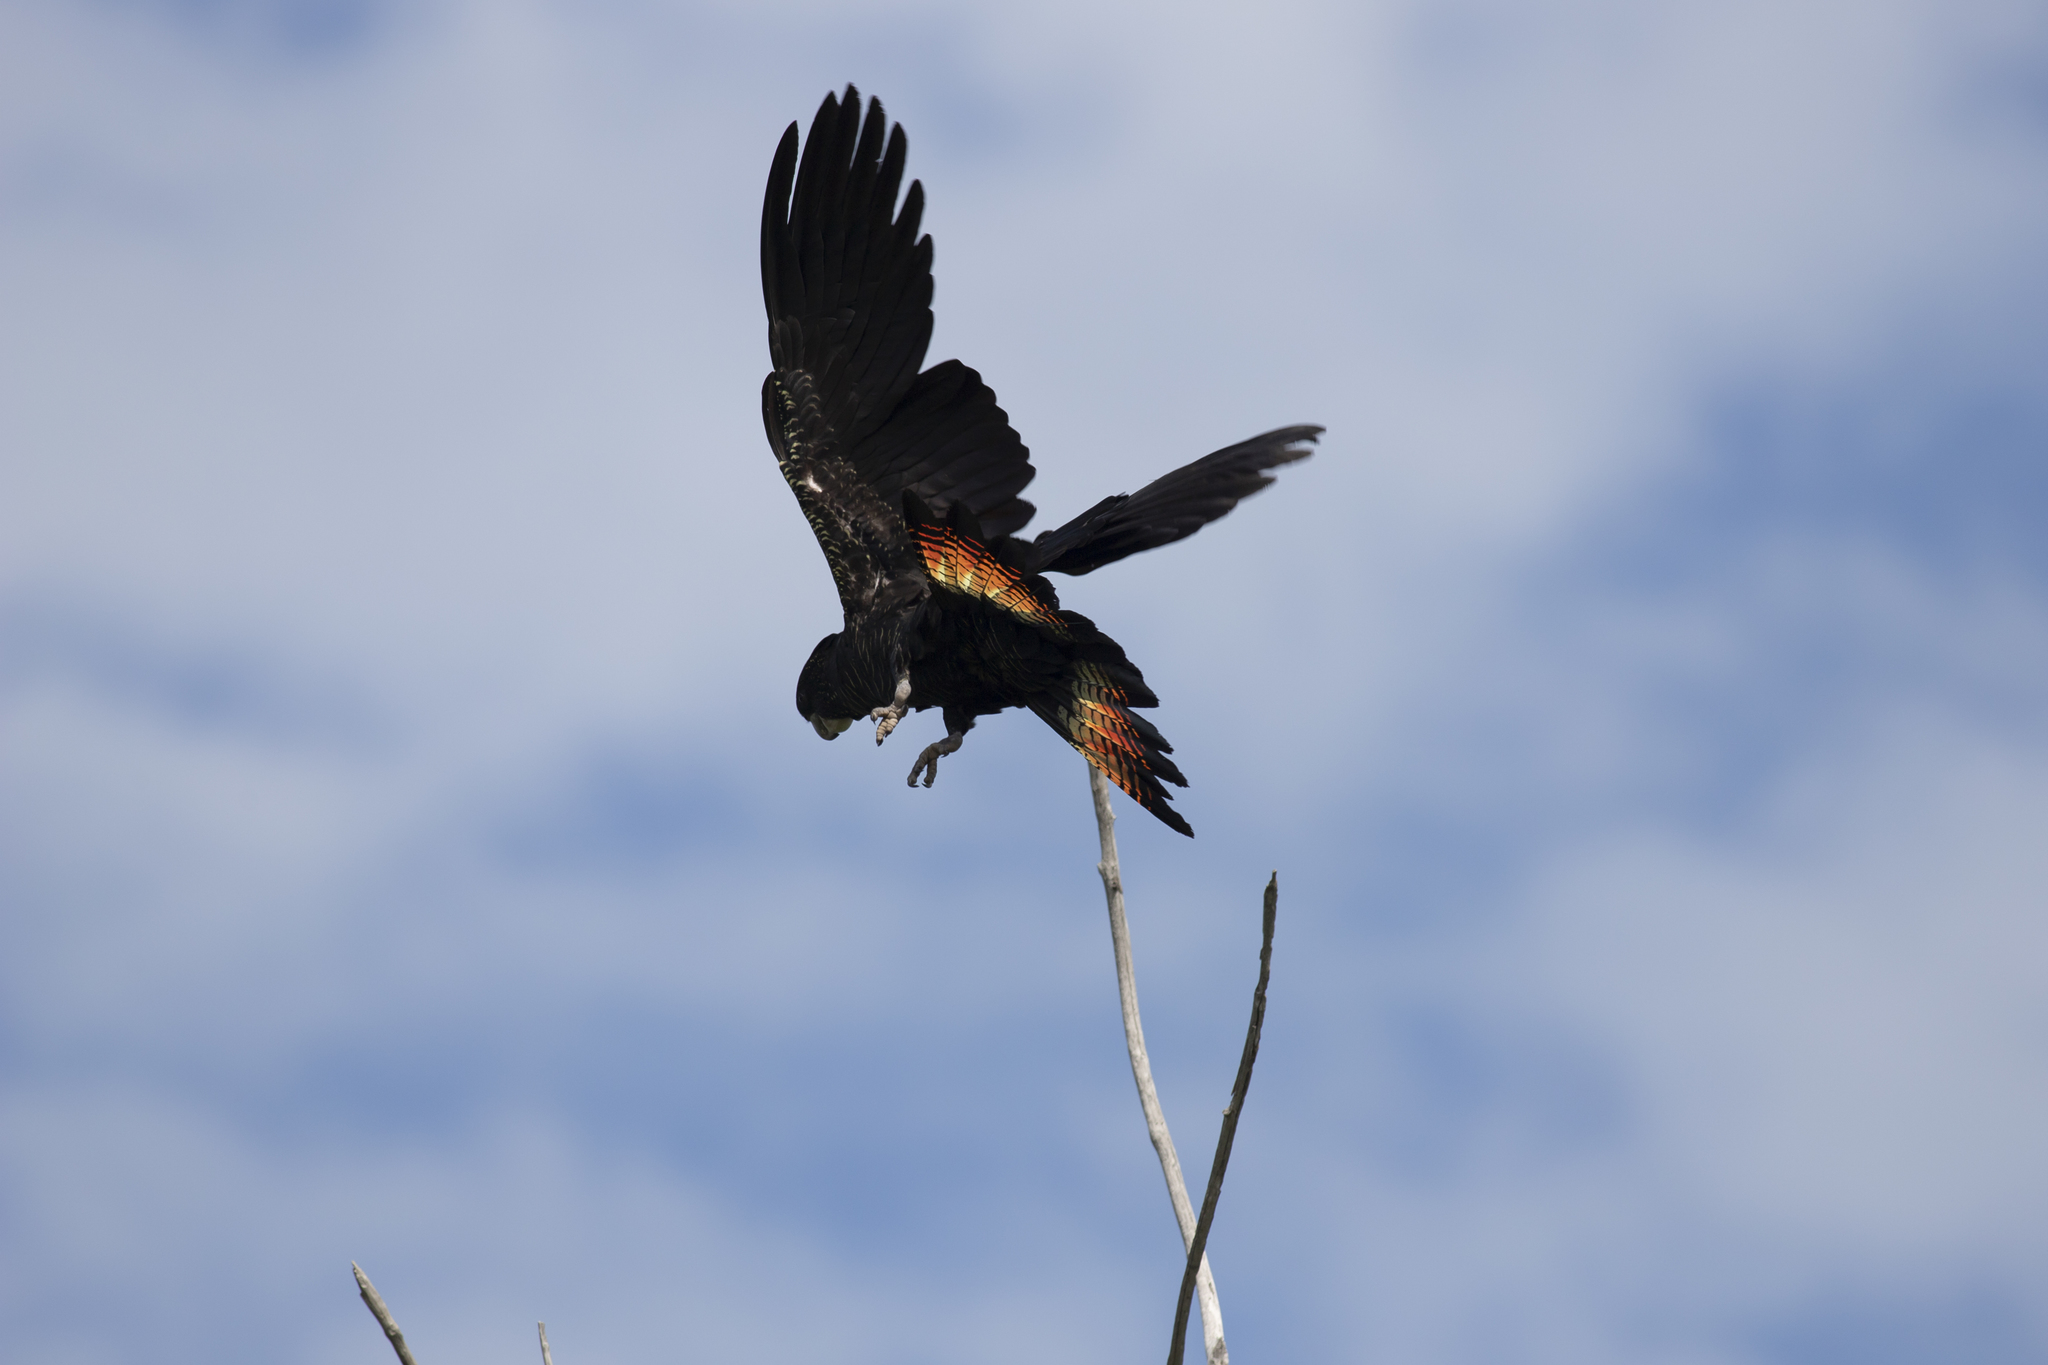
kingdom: Animalia
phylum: Chordata
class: Aves
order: Psittaciformes
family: Psittacidae
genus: Calyptorhynchus
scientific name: Calyptorhynchus banksii
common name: Red-tailed black cockatoo
